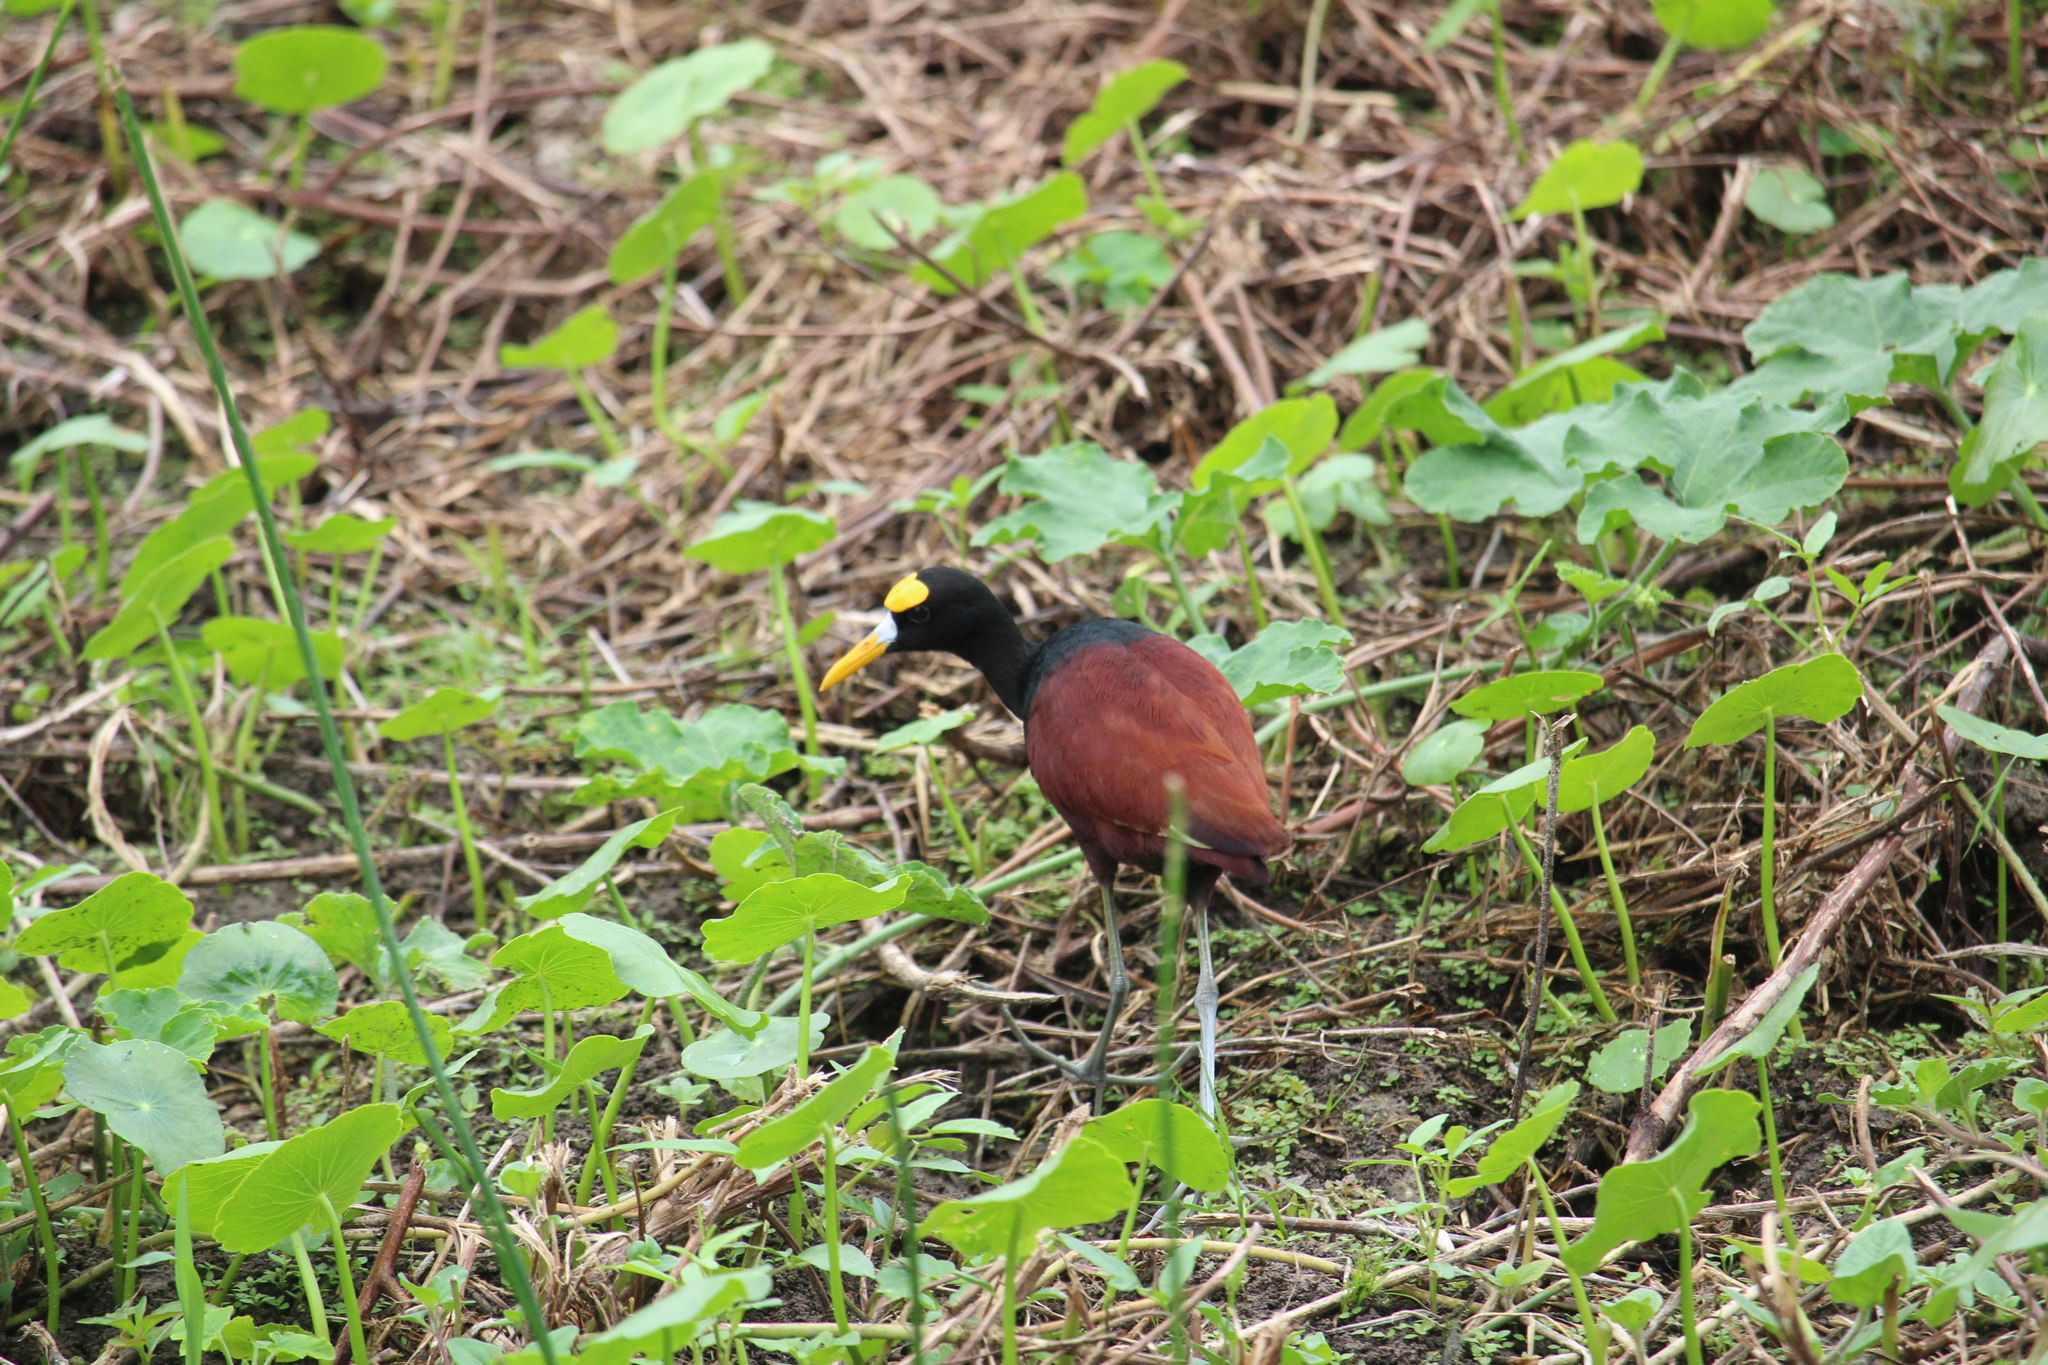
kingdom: Animalia
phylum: Chordata
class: Aves
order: Charadriiformes
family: Jacanidae
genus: Jacana
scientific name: Jacana spinosa
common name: Northern jacana
